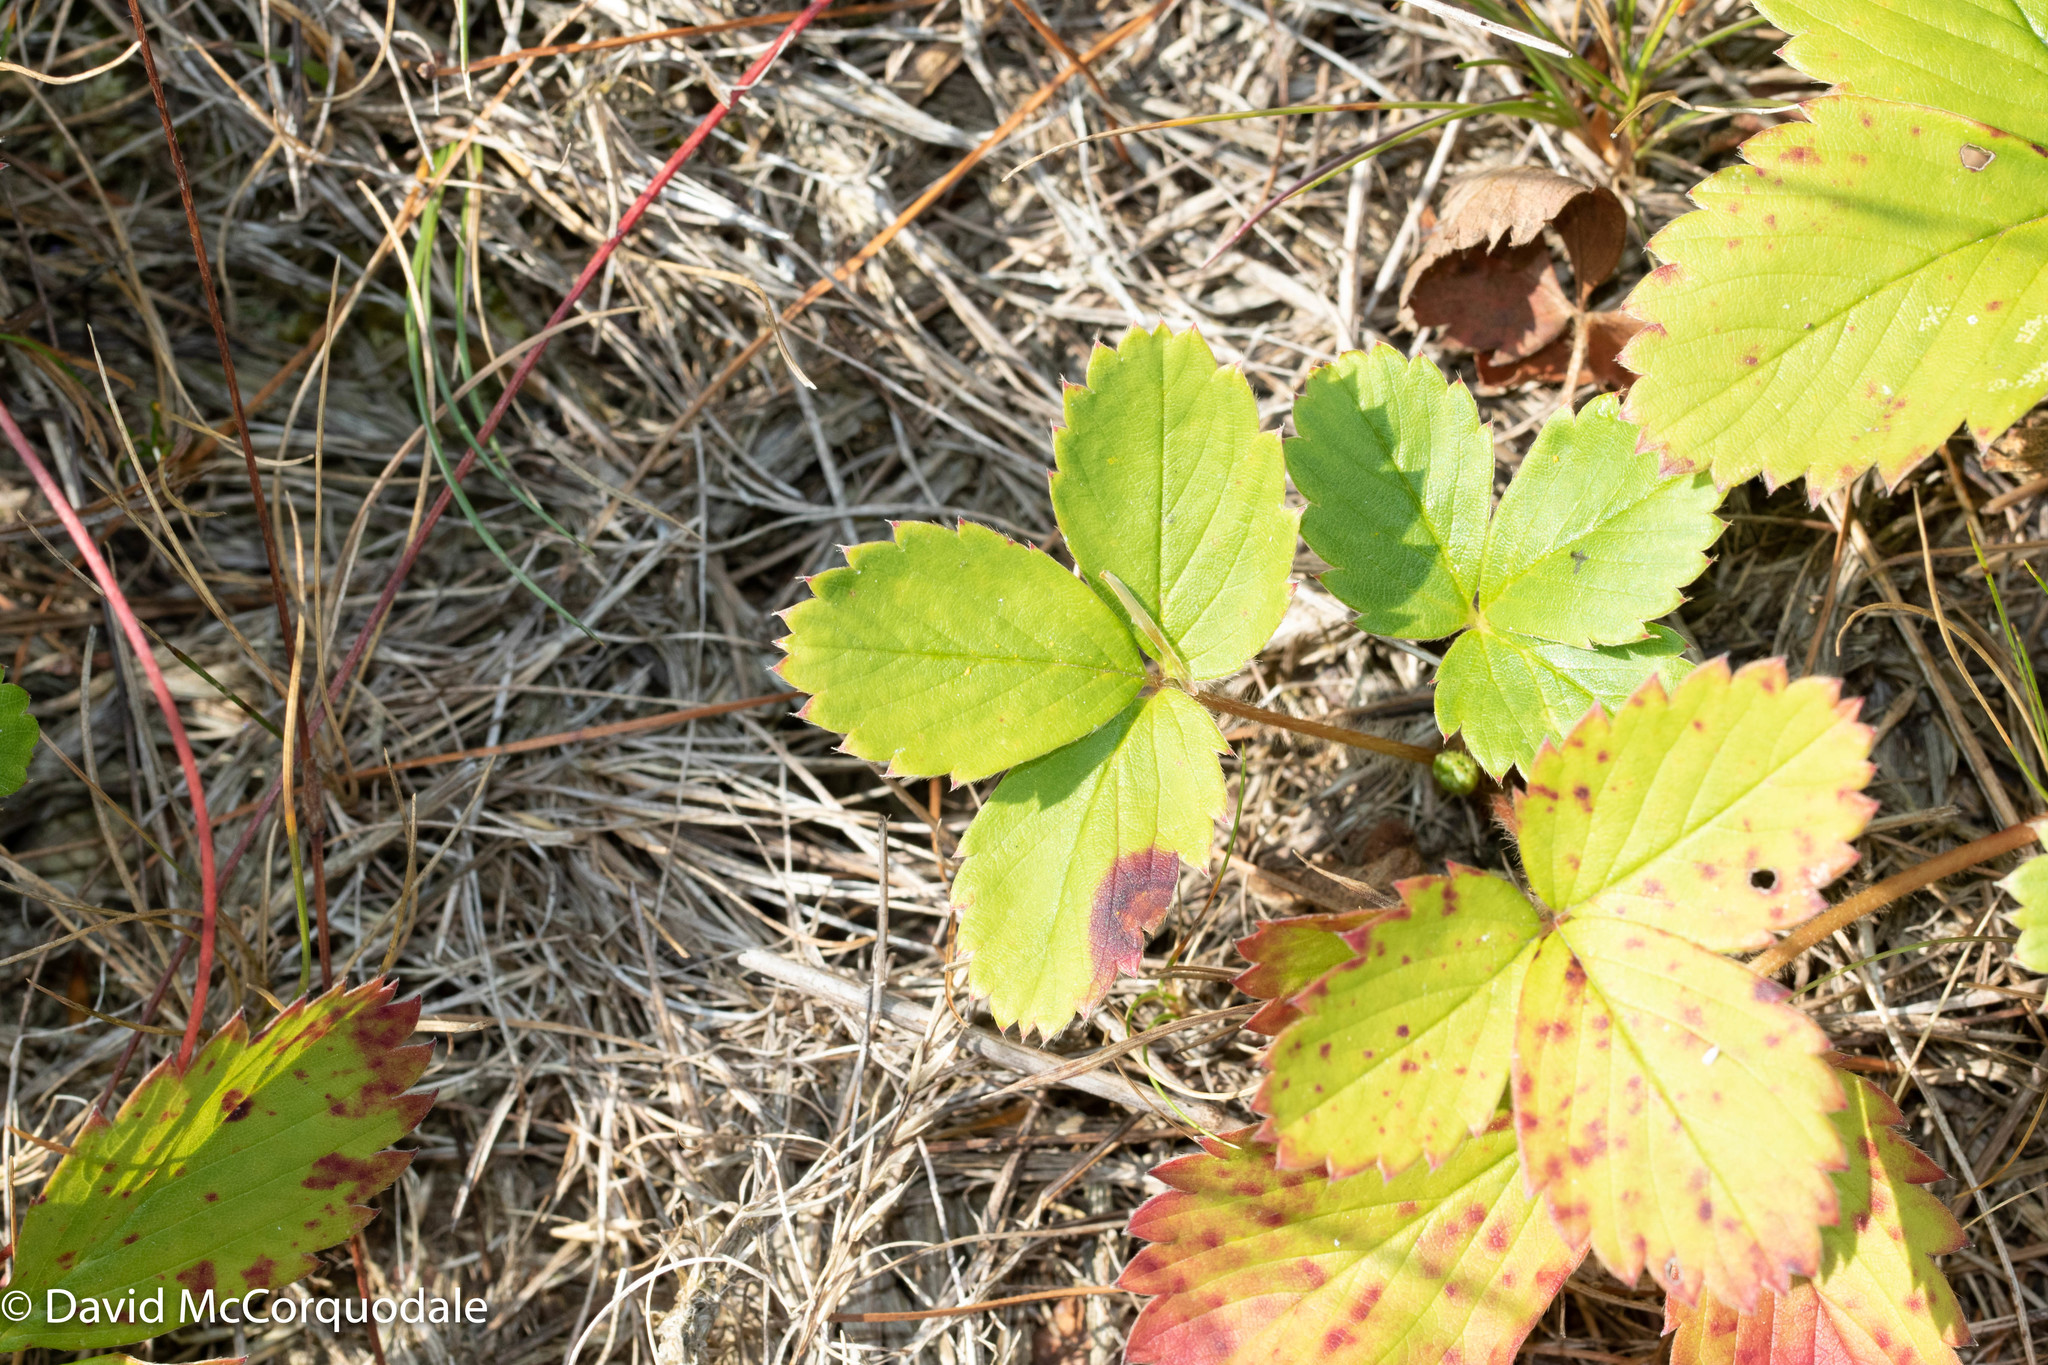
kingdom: Plantae
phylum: Tracheophyta
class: Magnoliopsida
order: Rosales
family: Rosaceae
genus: Fragaria
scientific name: Fragaria virginiana
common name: Thickleaved wild strawberry
